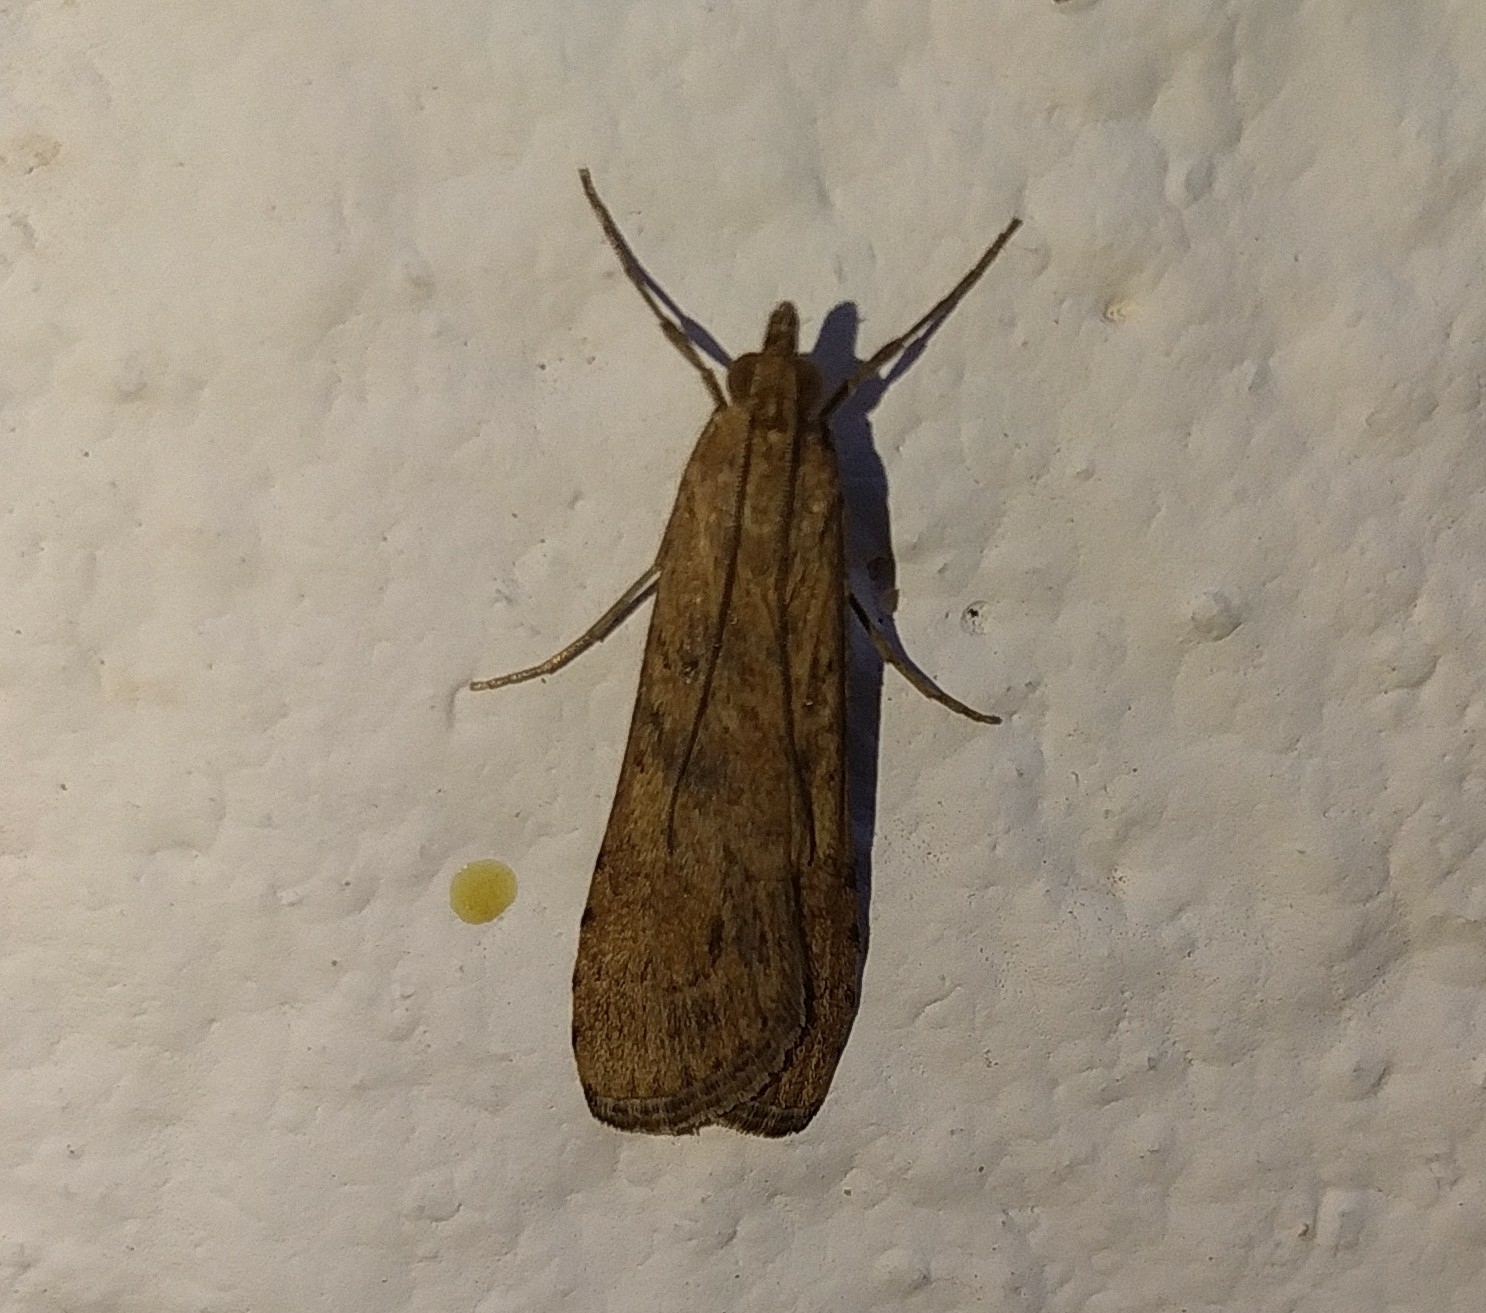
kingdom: Animalia
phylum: Arthropoda
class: Insecta
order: Lepidoptera
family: Crambidae
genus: Nomophila
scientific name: Nomophila noctuella
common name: Rush veneer
